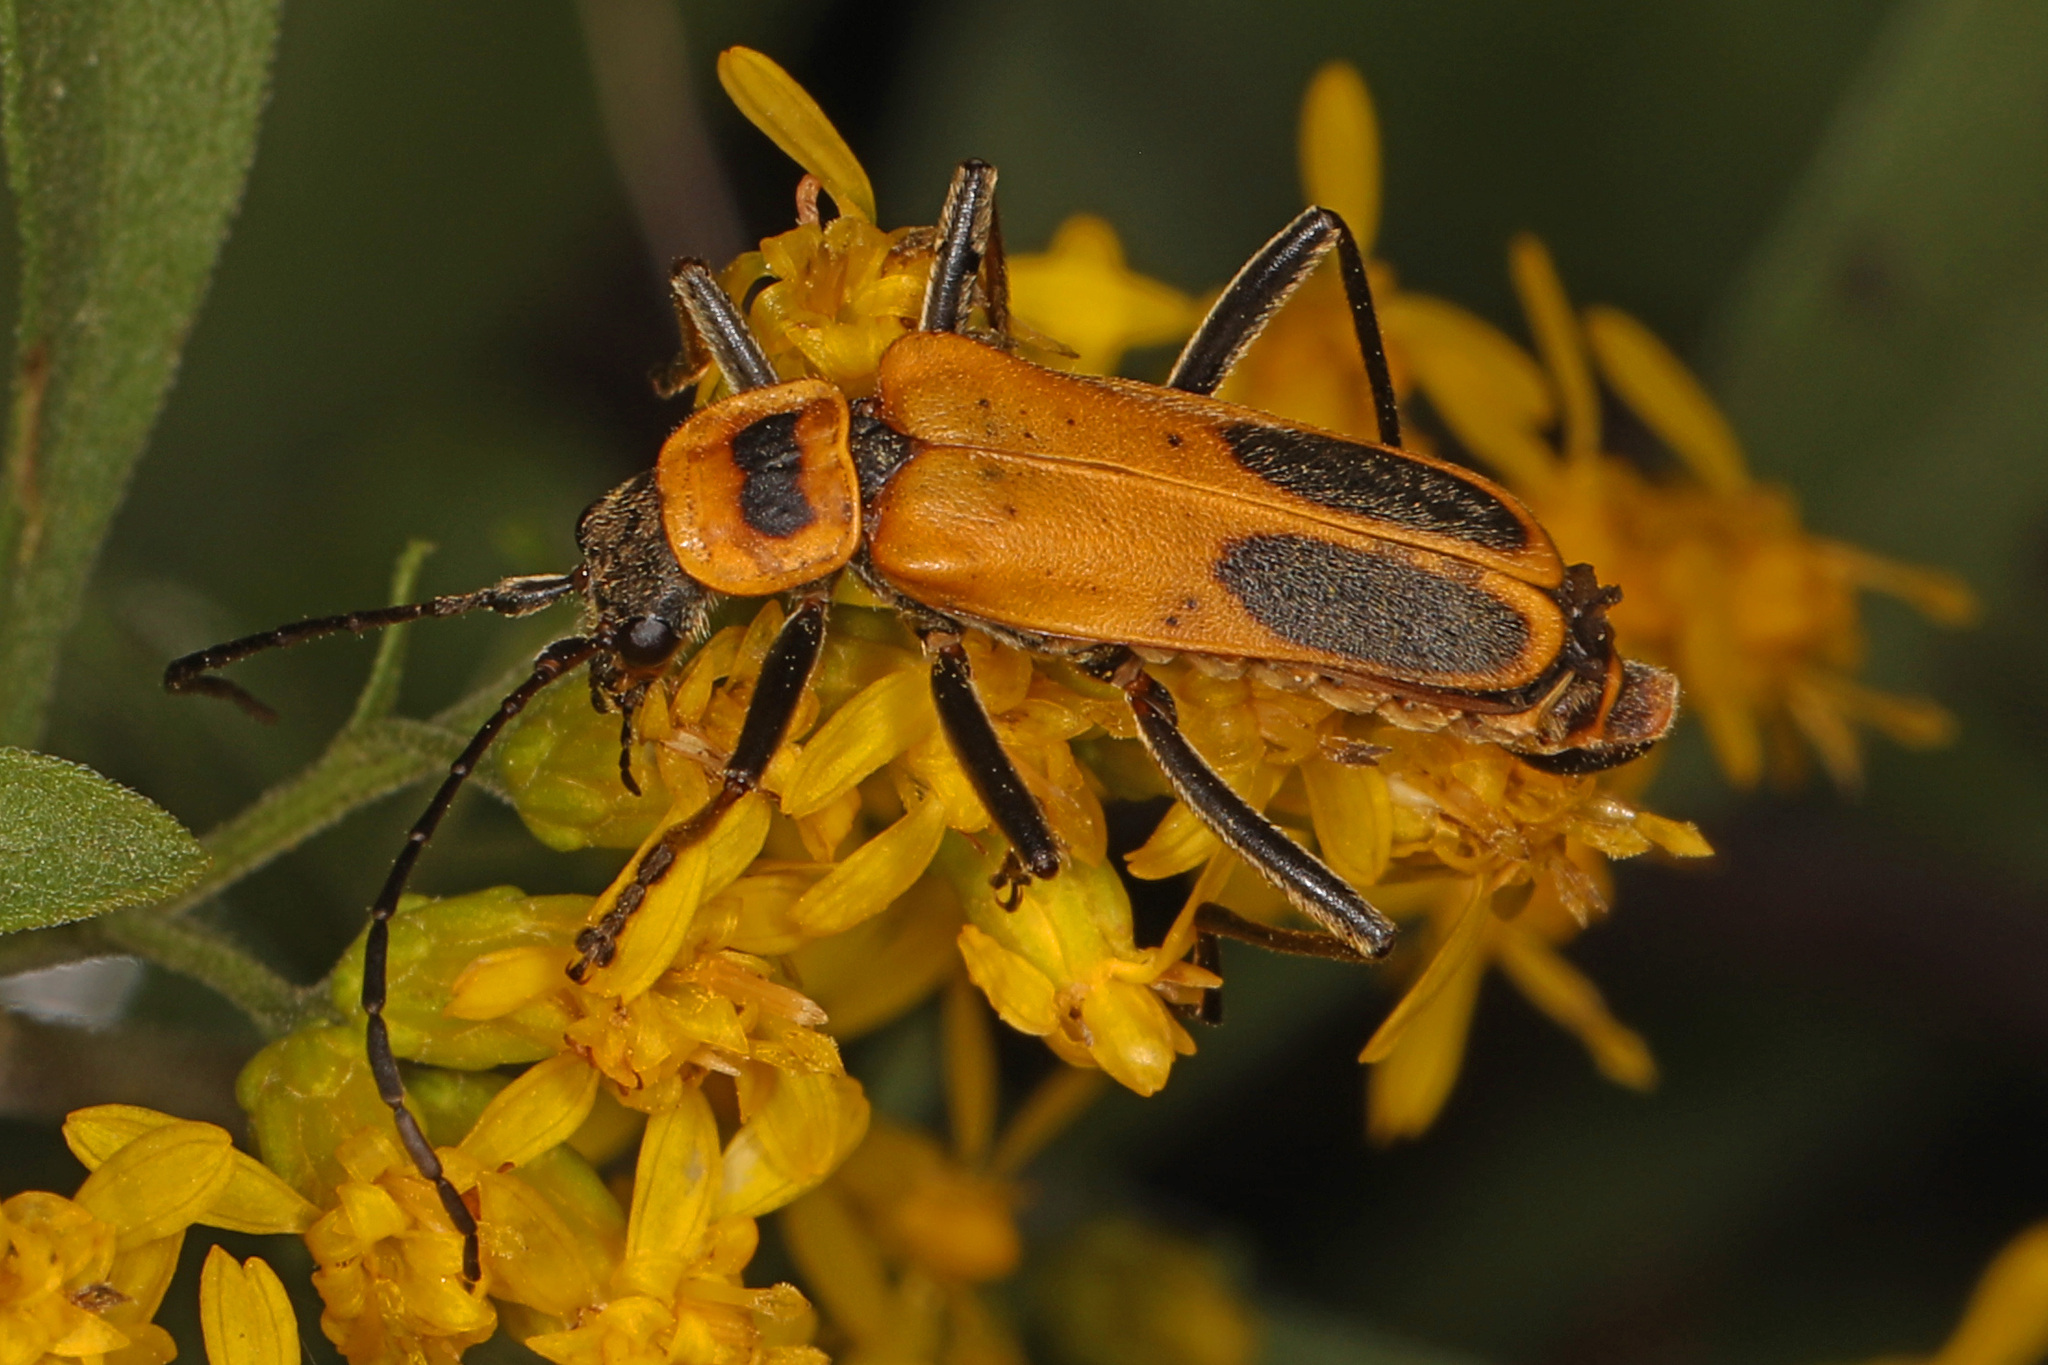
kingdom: Animalia
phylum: Arthropoda
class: Insecta
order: Coleoptera
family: Cantharidae
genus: Chauliognathus
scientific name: Chauliognathus pensylvanicus
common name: Goldenrod soldier beetle
